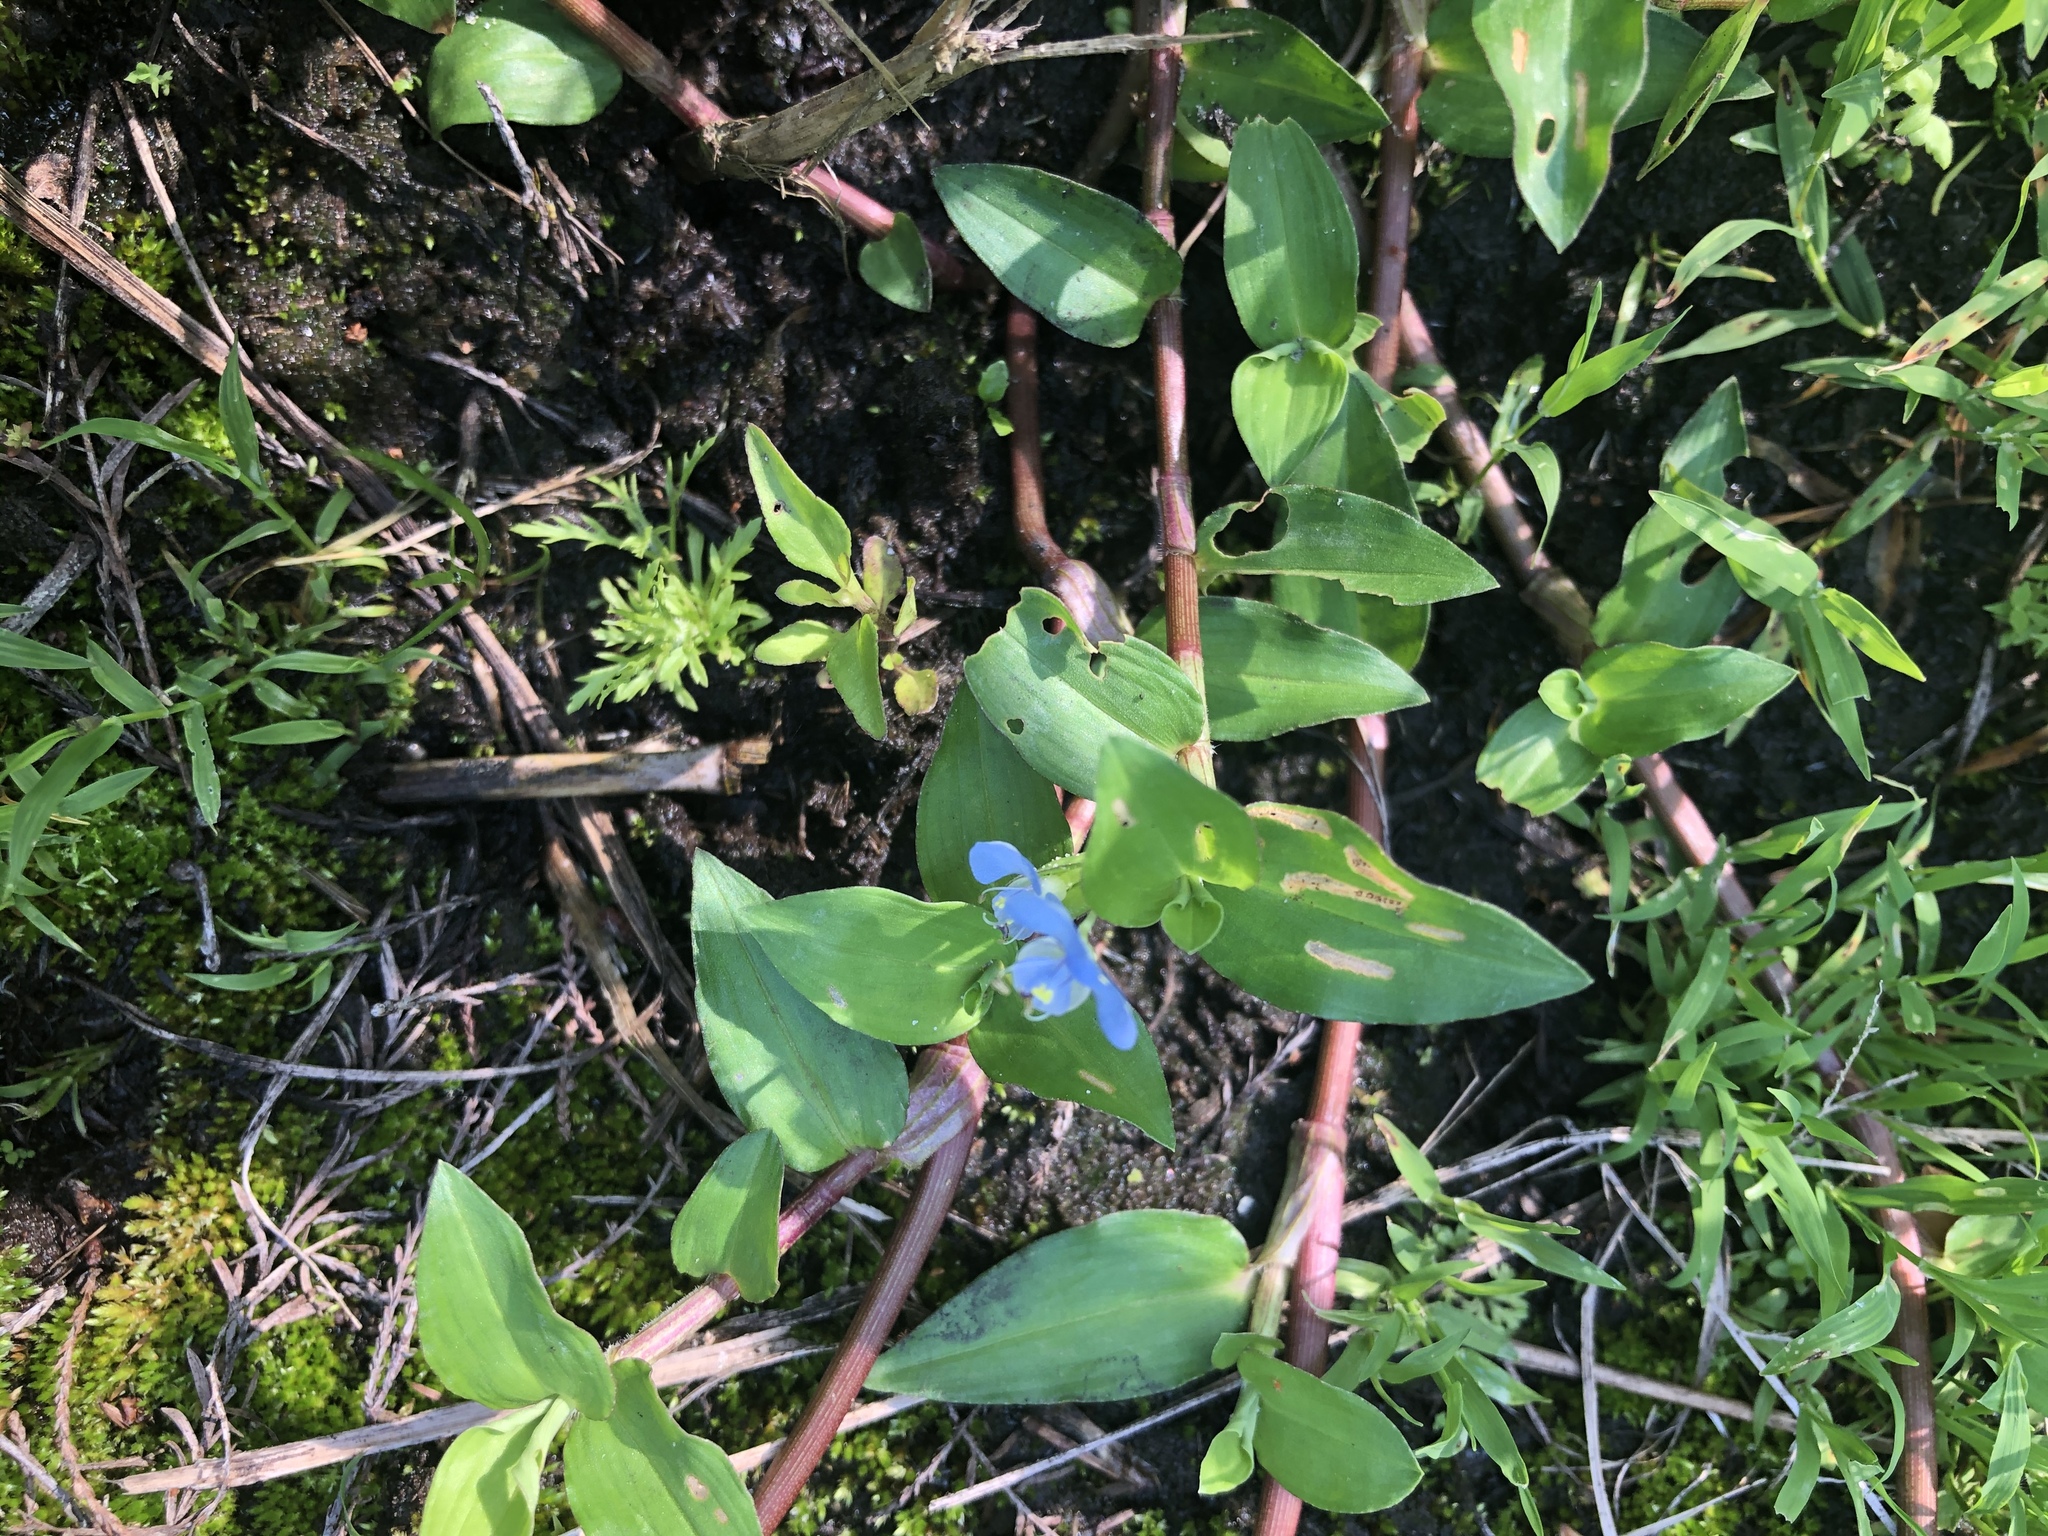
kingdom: Plantae
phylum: Tracheophyta
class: Liliopsida
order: Commelinales
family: Commelinaceae
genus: Commelina
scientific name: Commelina diffusa
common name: Climbing dayflower
